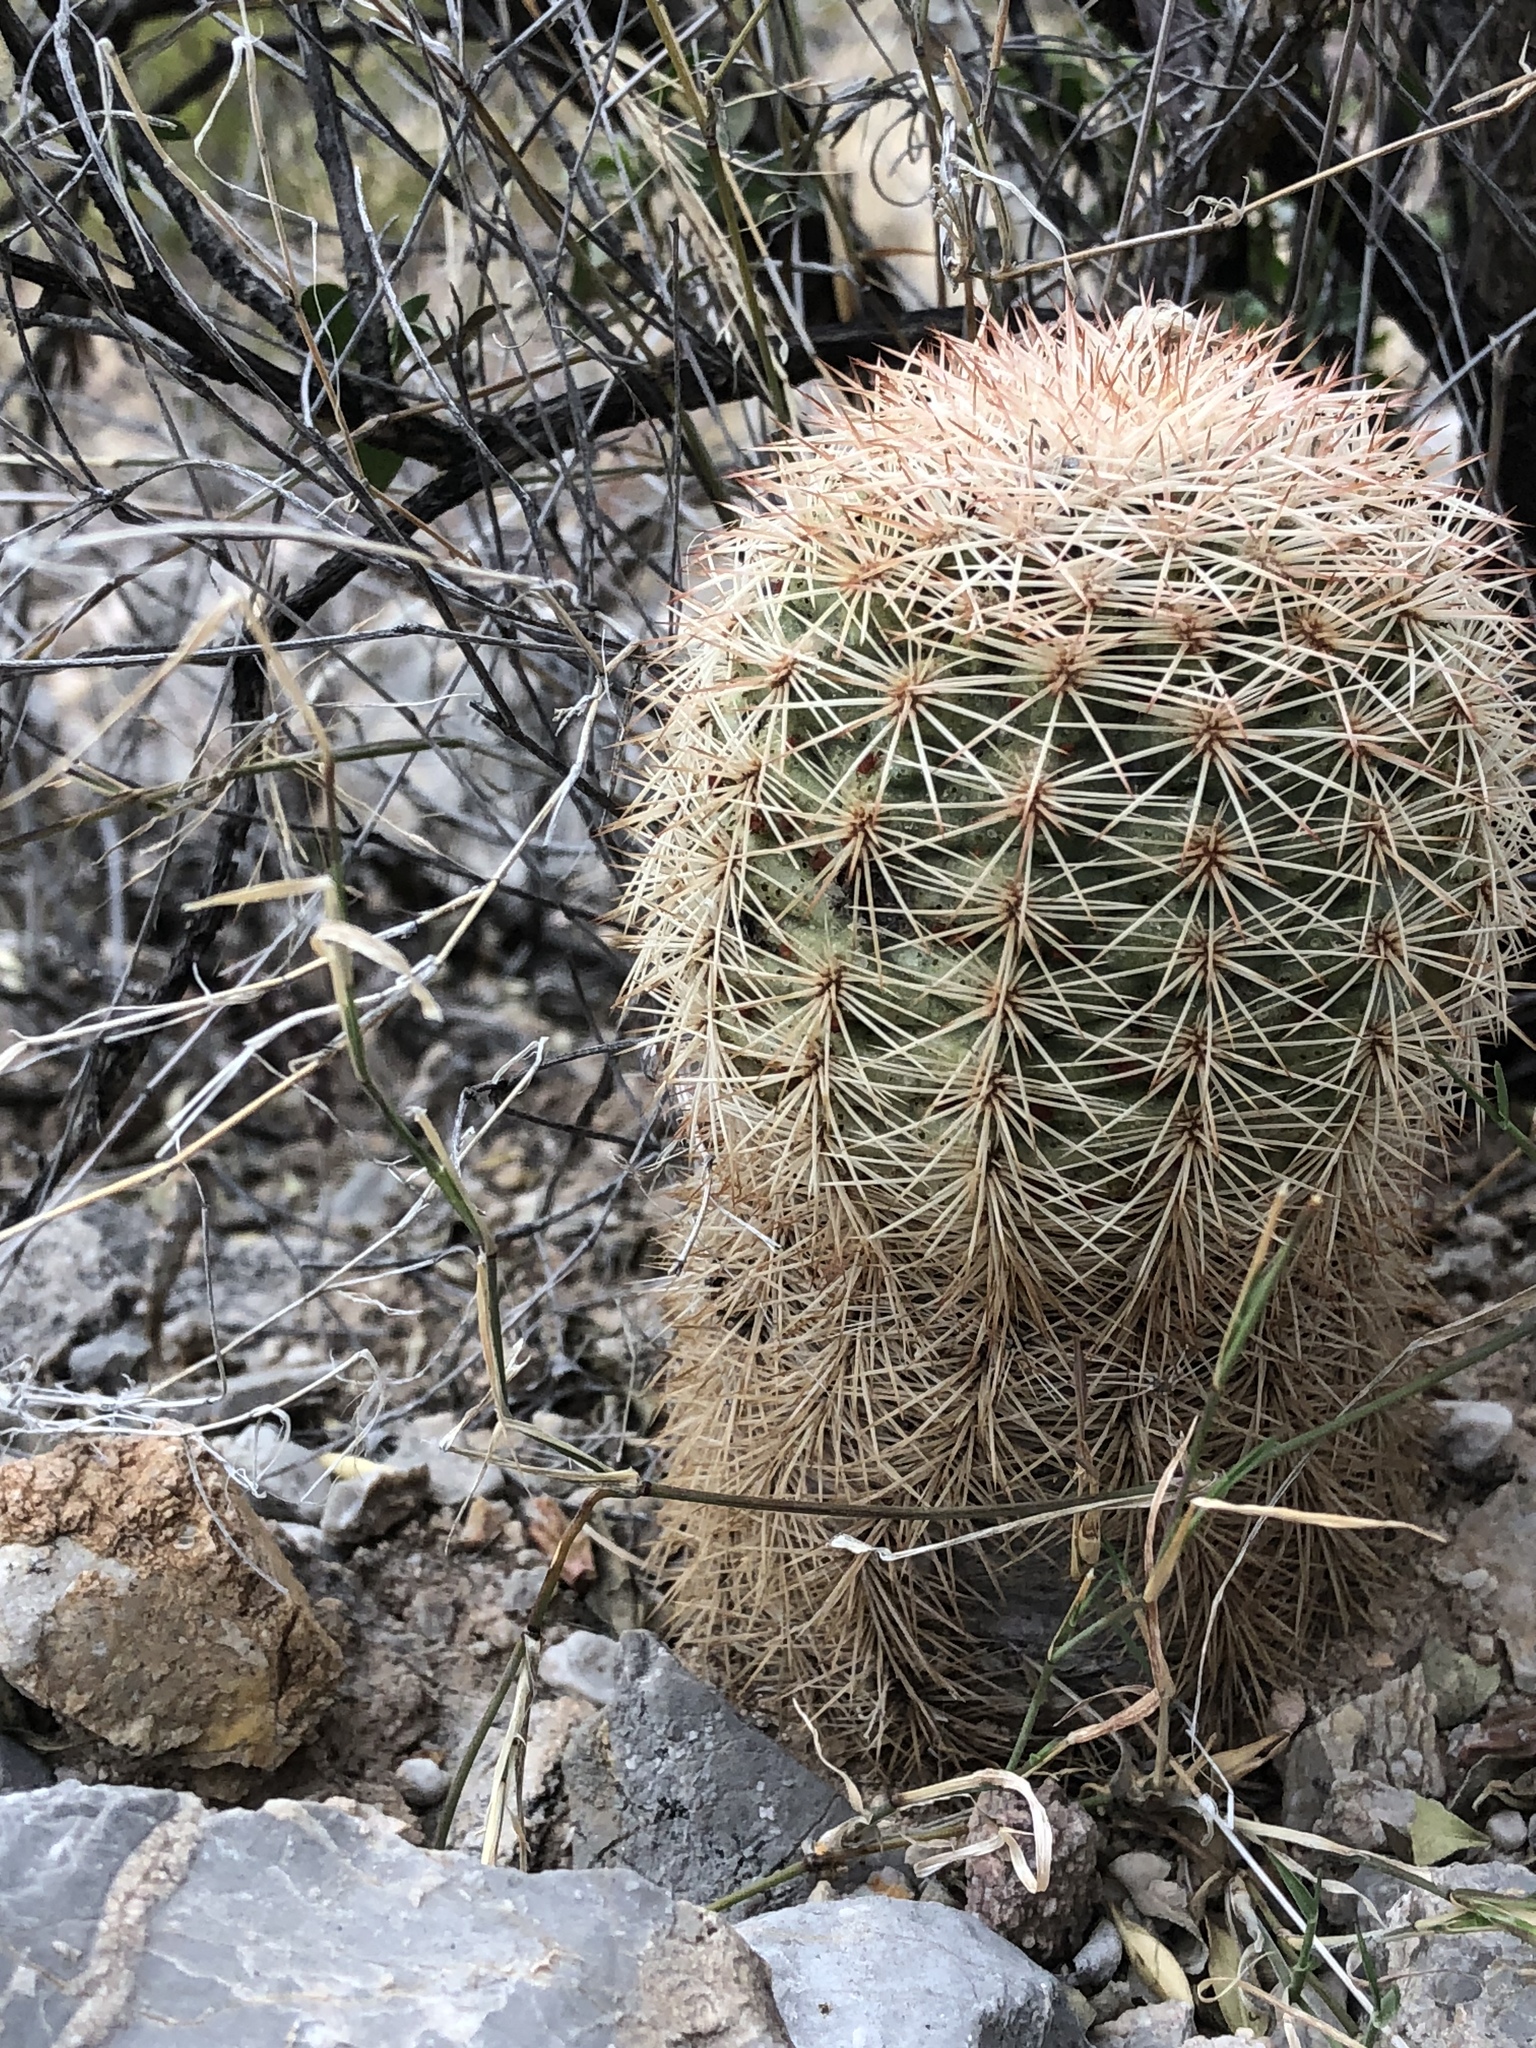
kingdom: Plantae
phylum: Tracheophyta
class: Magnoliopsida
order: Caryophyllales
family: Cactaceae
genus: Echinocereus
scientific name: Echinocereus dasyacanthus
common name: Spiny hedgehog cactus
